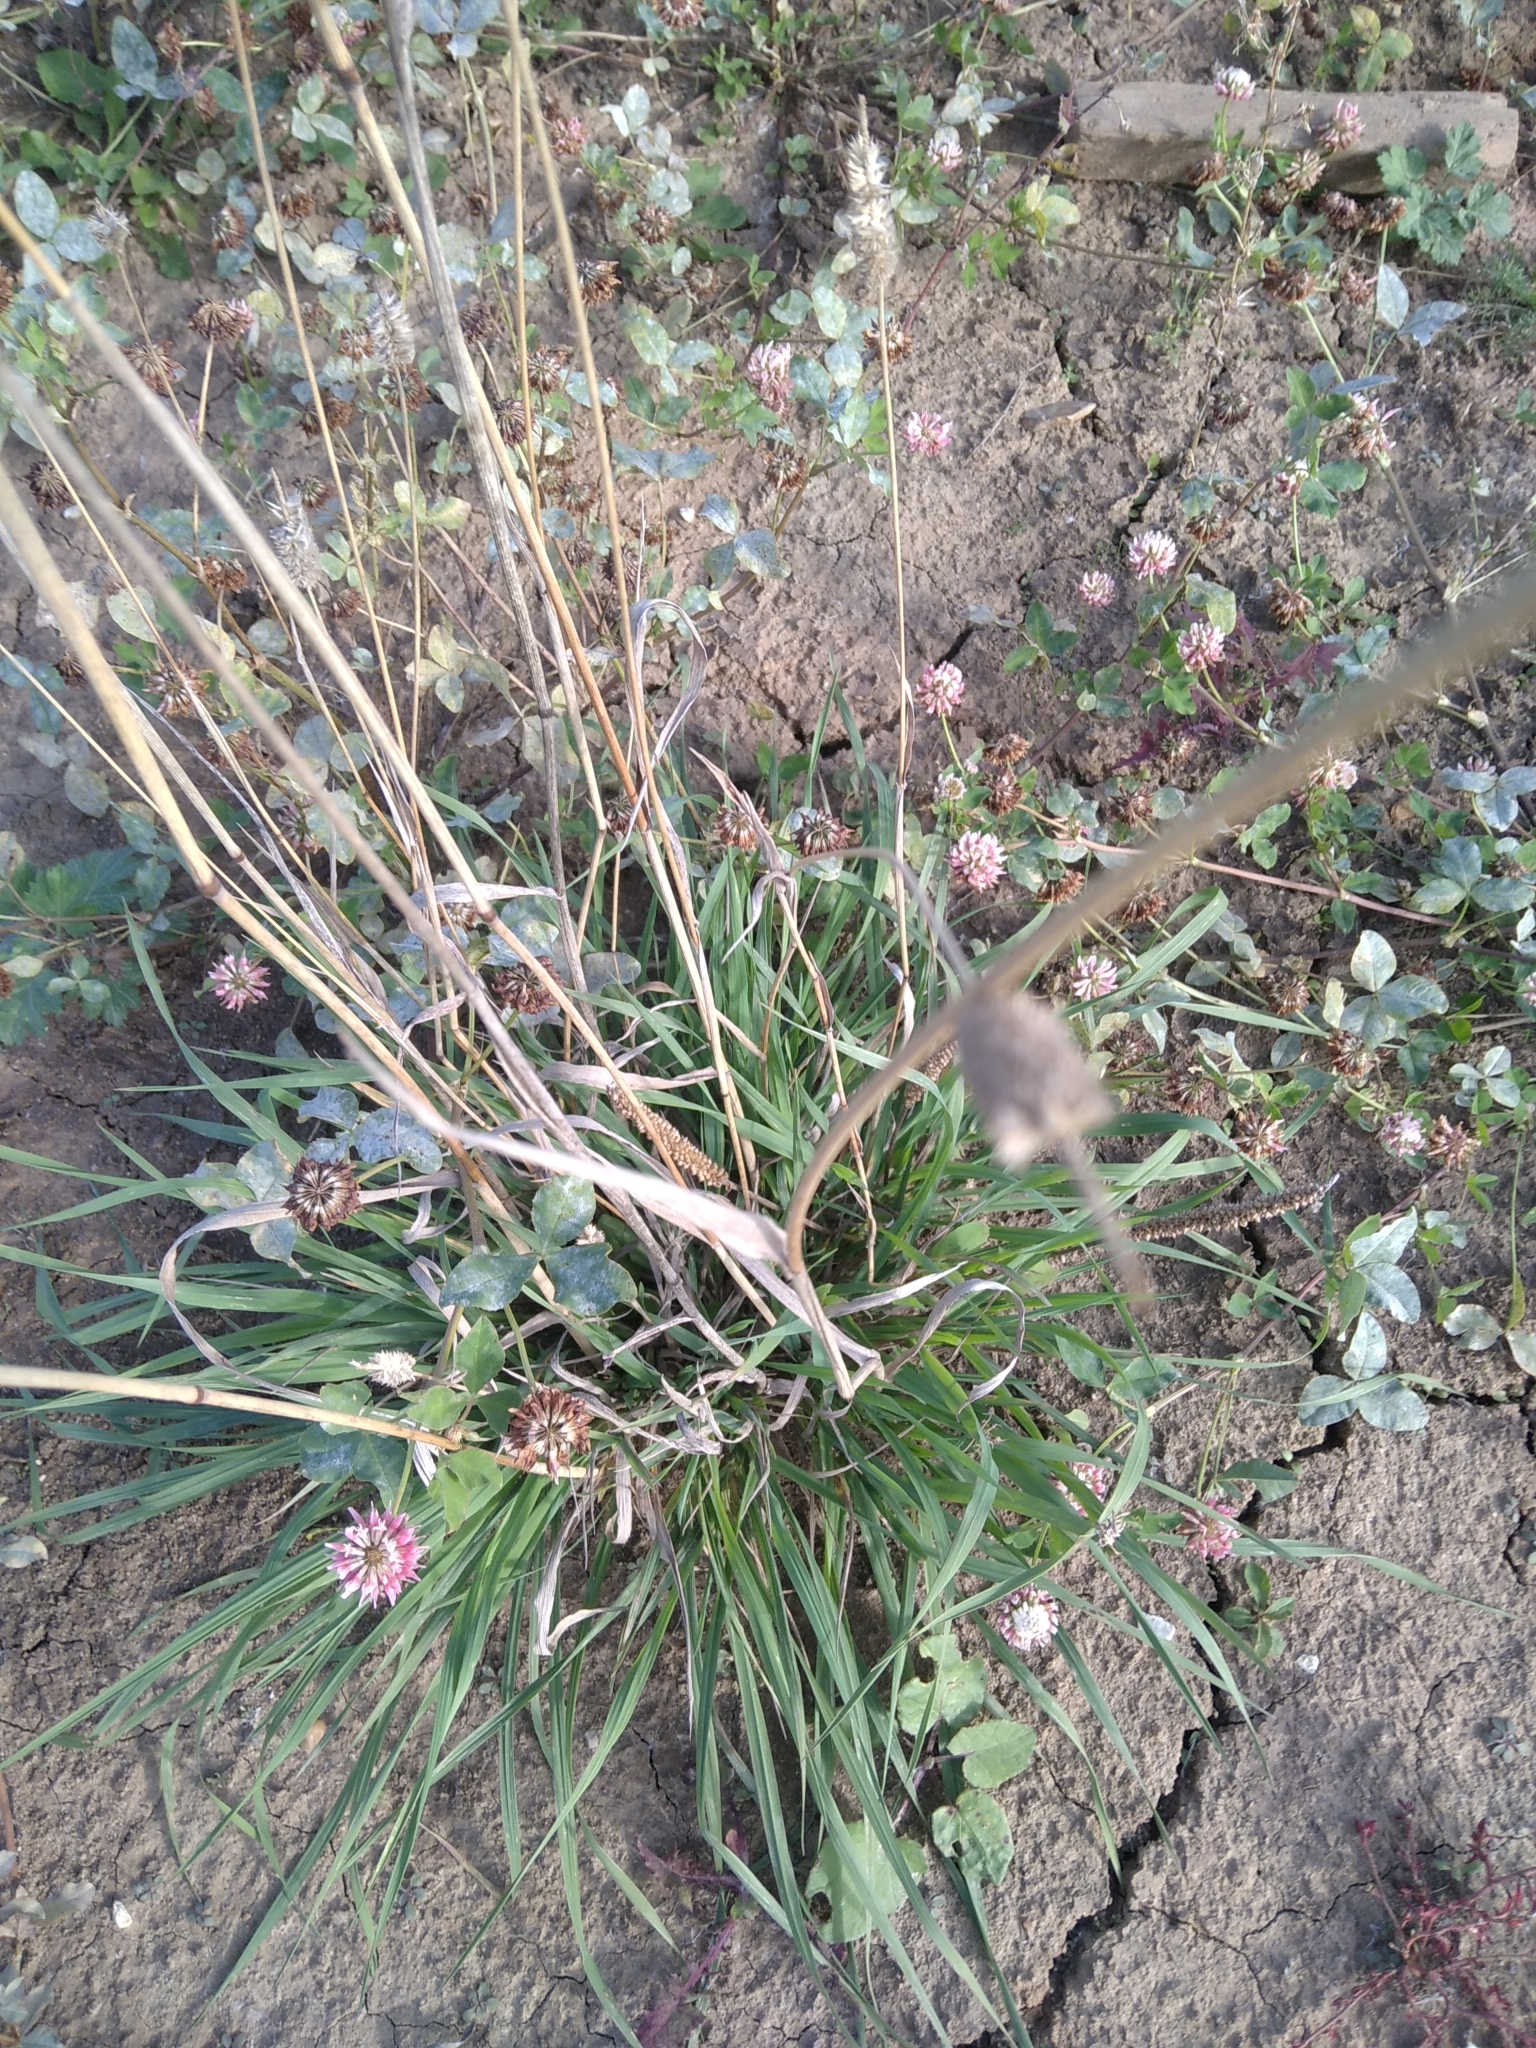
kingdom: Plantae
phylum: Tracheophyta
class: Liliopsida
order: Poales
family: Poaceae
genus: Phleum
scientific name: Phleum pratense
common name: Timothy grass
